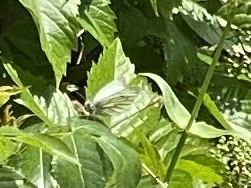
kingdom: Animalia
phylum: Arthropoda
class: Insecta
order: Lepidoptera
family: Pieridae
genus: Pieris
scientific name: Pieris napi
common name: Green-veined white
